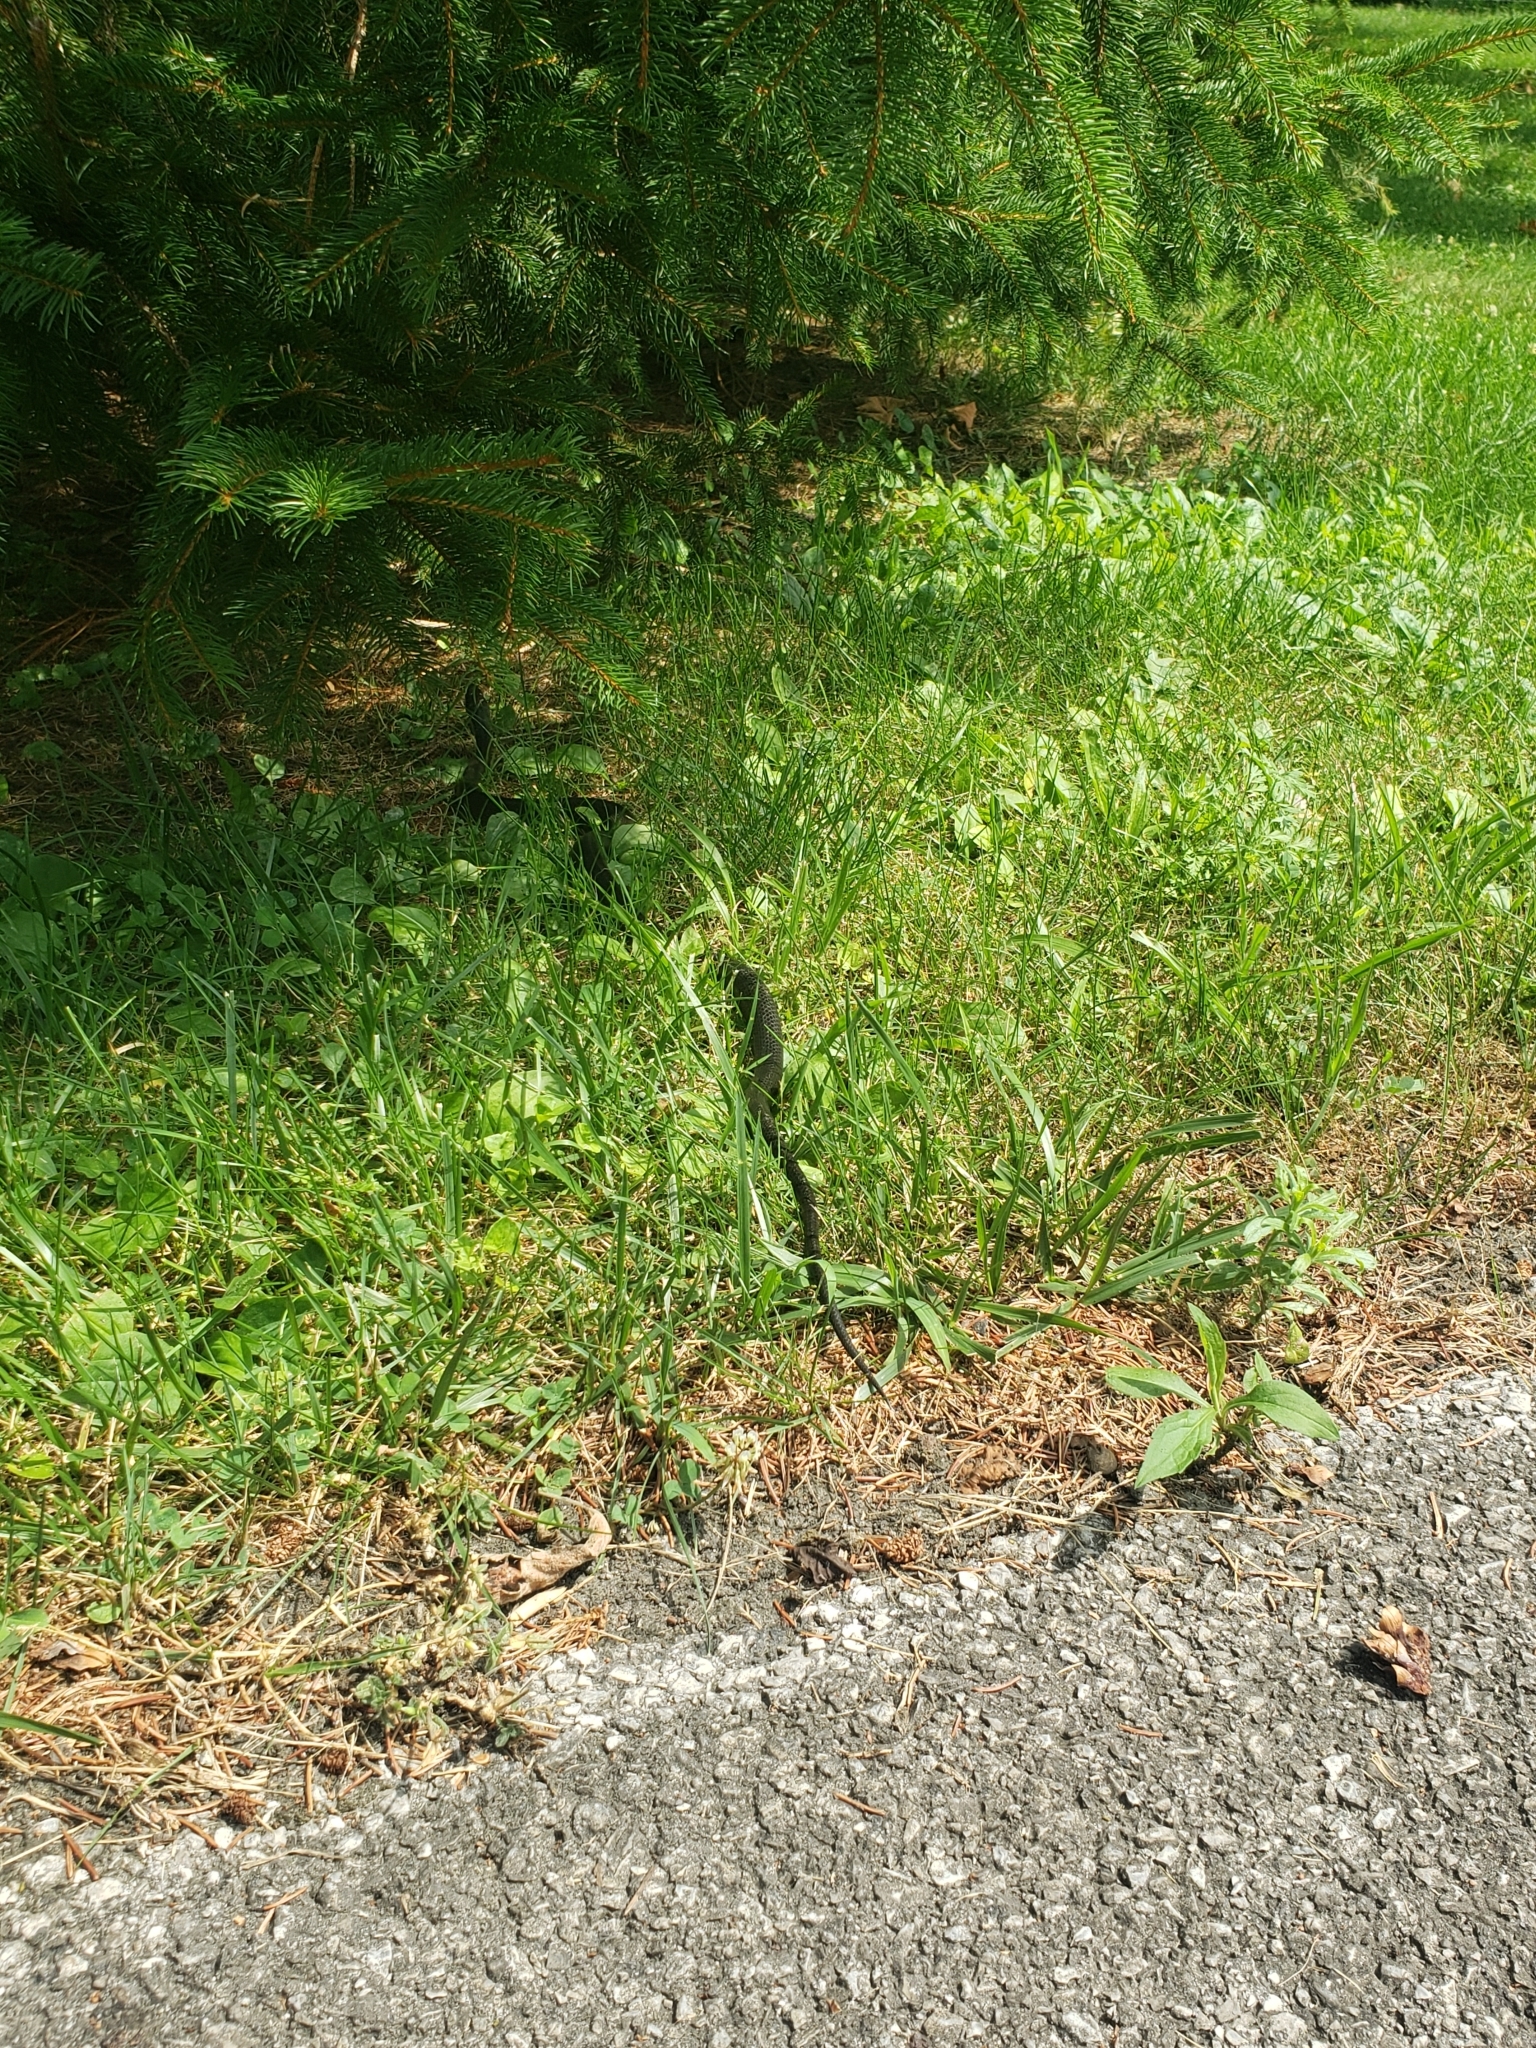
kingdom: Animalia
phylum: Chordata
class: Squamata
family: Colubridae
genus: Pantherophis
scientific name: Pantherophis spiloides
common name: Gray rat snake
